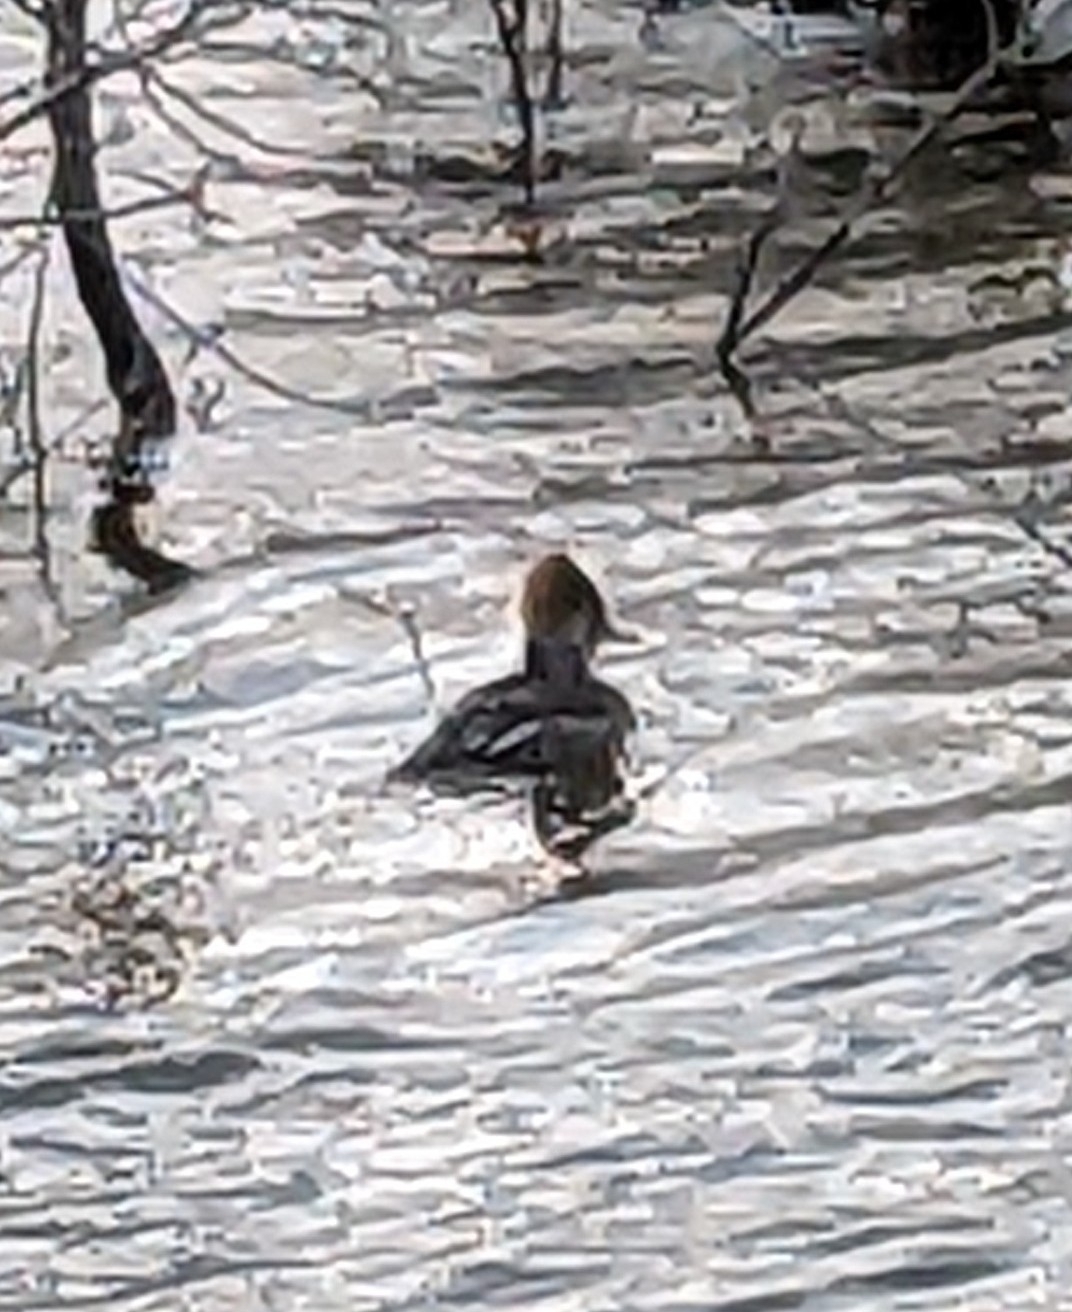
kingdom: Animalia
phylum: Chordata
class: Aves
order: Anseriformes
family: Anatidae
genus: Lophodytes
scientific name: Lophodytes cucullatus
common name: Hooded merganser
